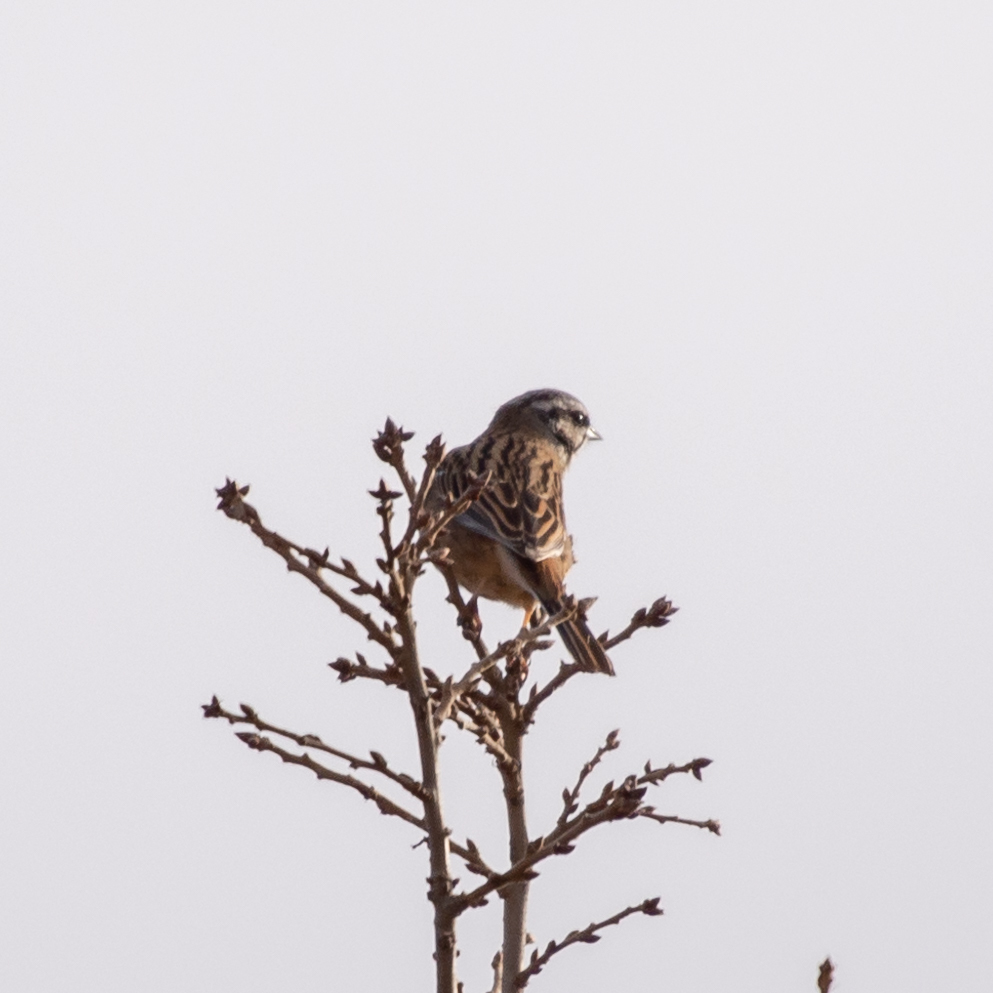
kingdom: Animalia
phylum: Chordata
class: Aves
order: Passeriformes
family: Emberizidae
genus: Emberiza
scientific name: Emberiza cia
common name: Rock bunting
